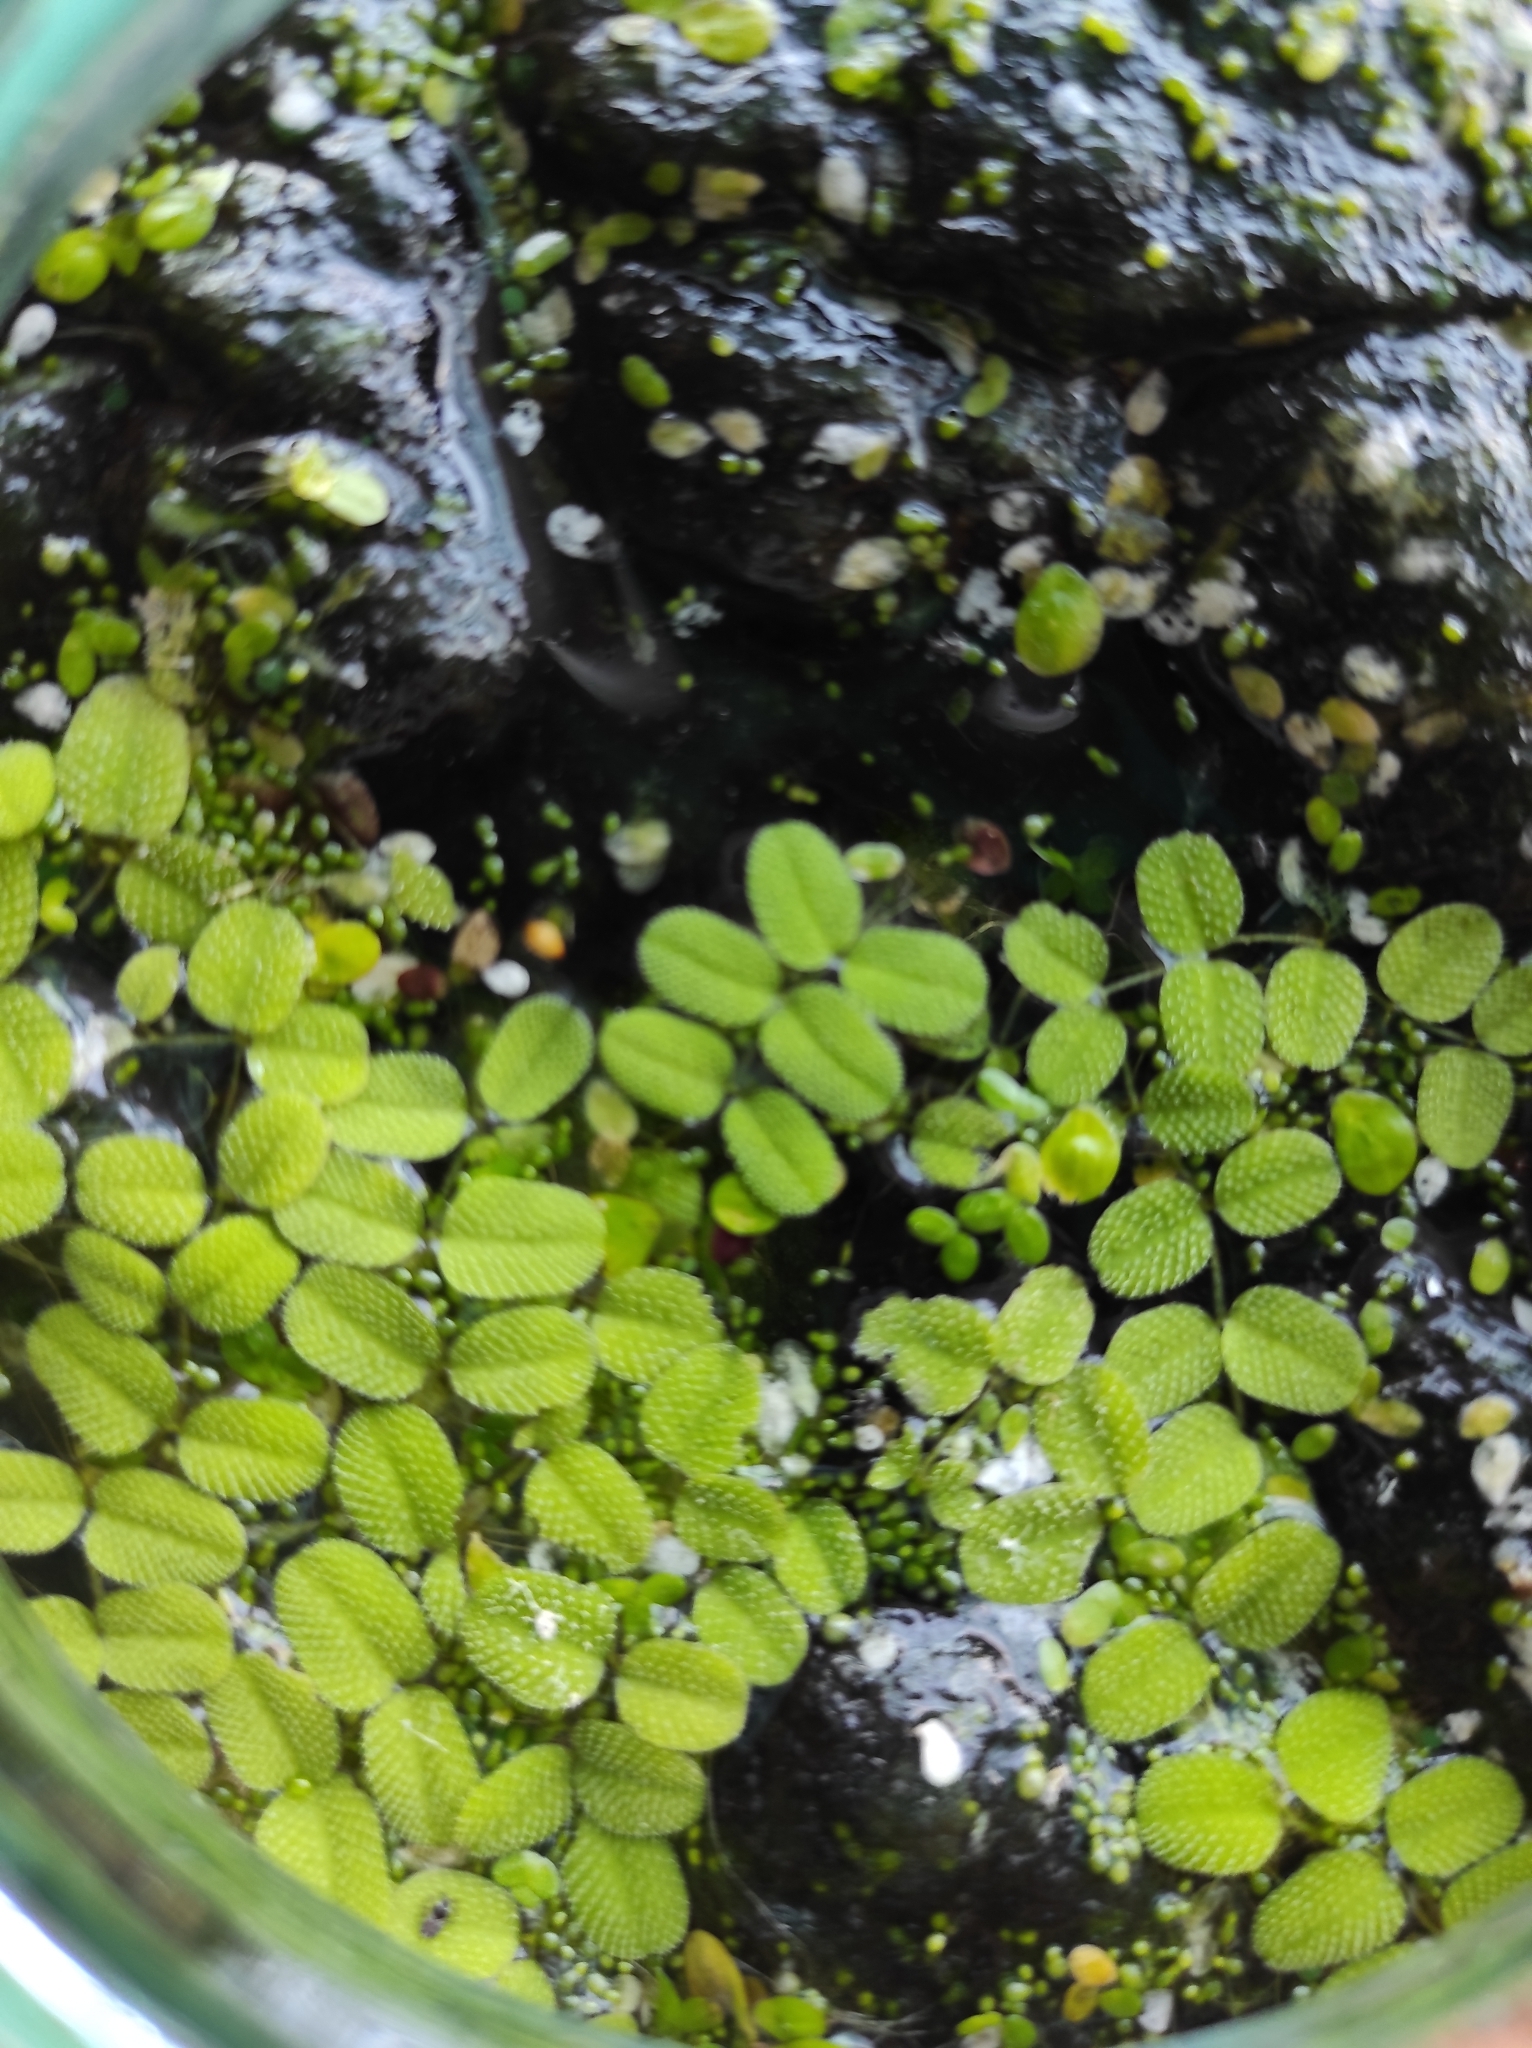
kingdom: Plantae
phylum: Tracheophyta
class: Polypodiopsida
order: Salviniales
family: Salviniaceae
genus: Salvinia
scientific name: Salvinia natans
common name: Floating fern
